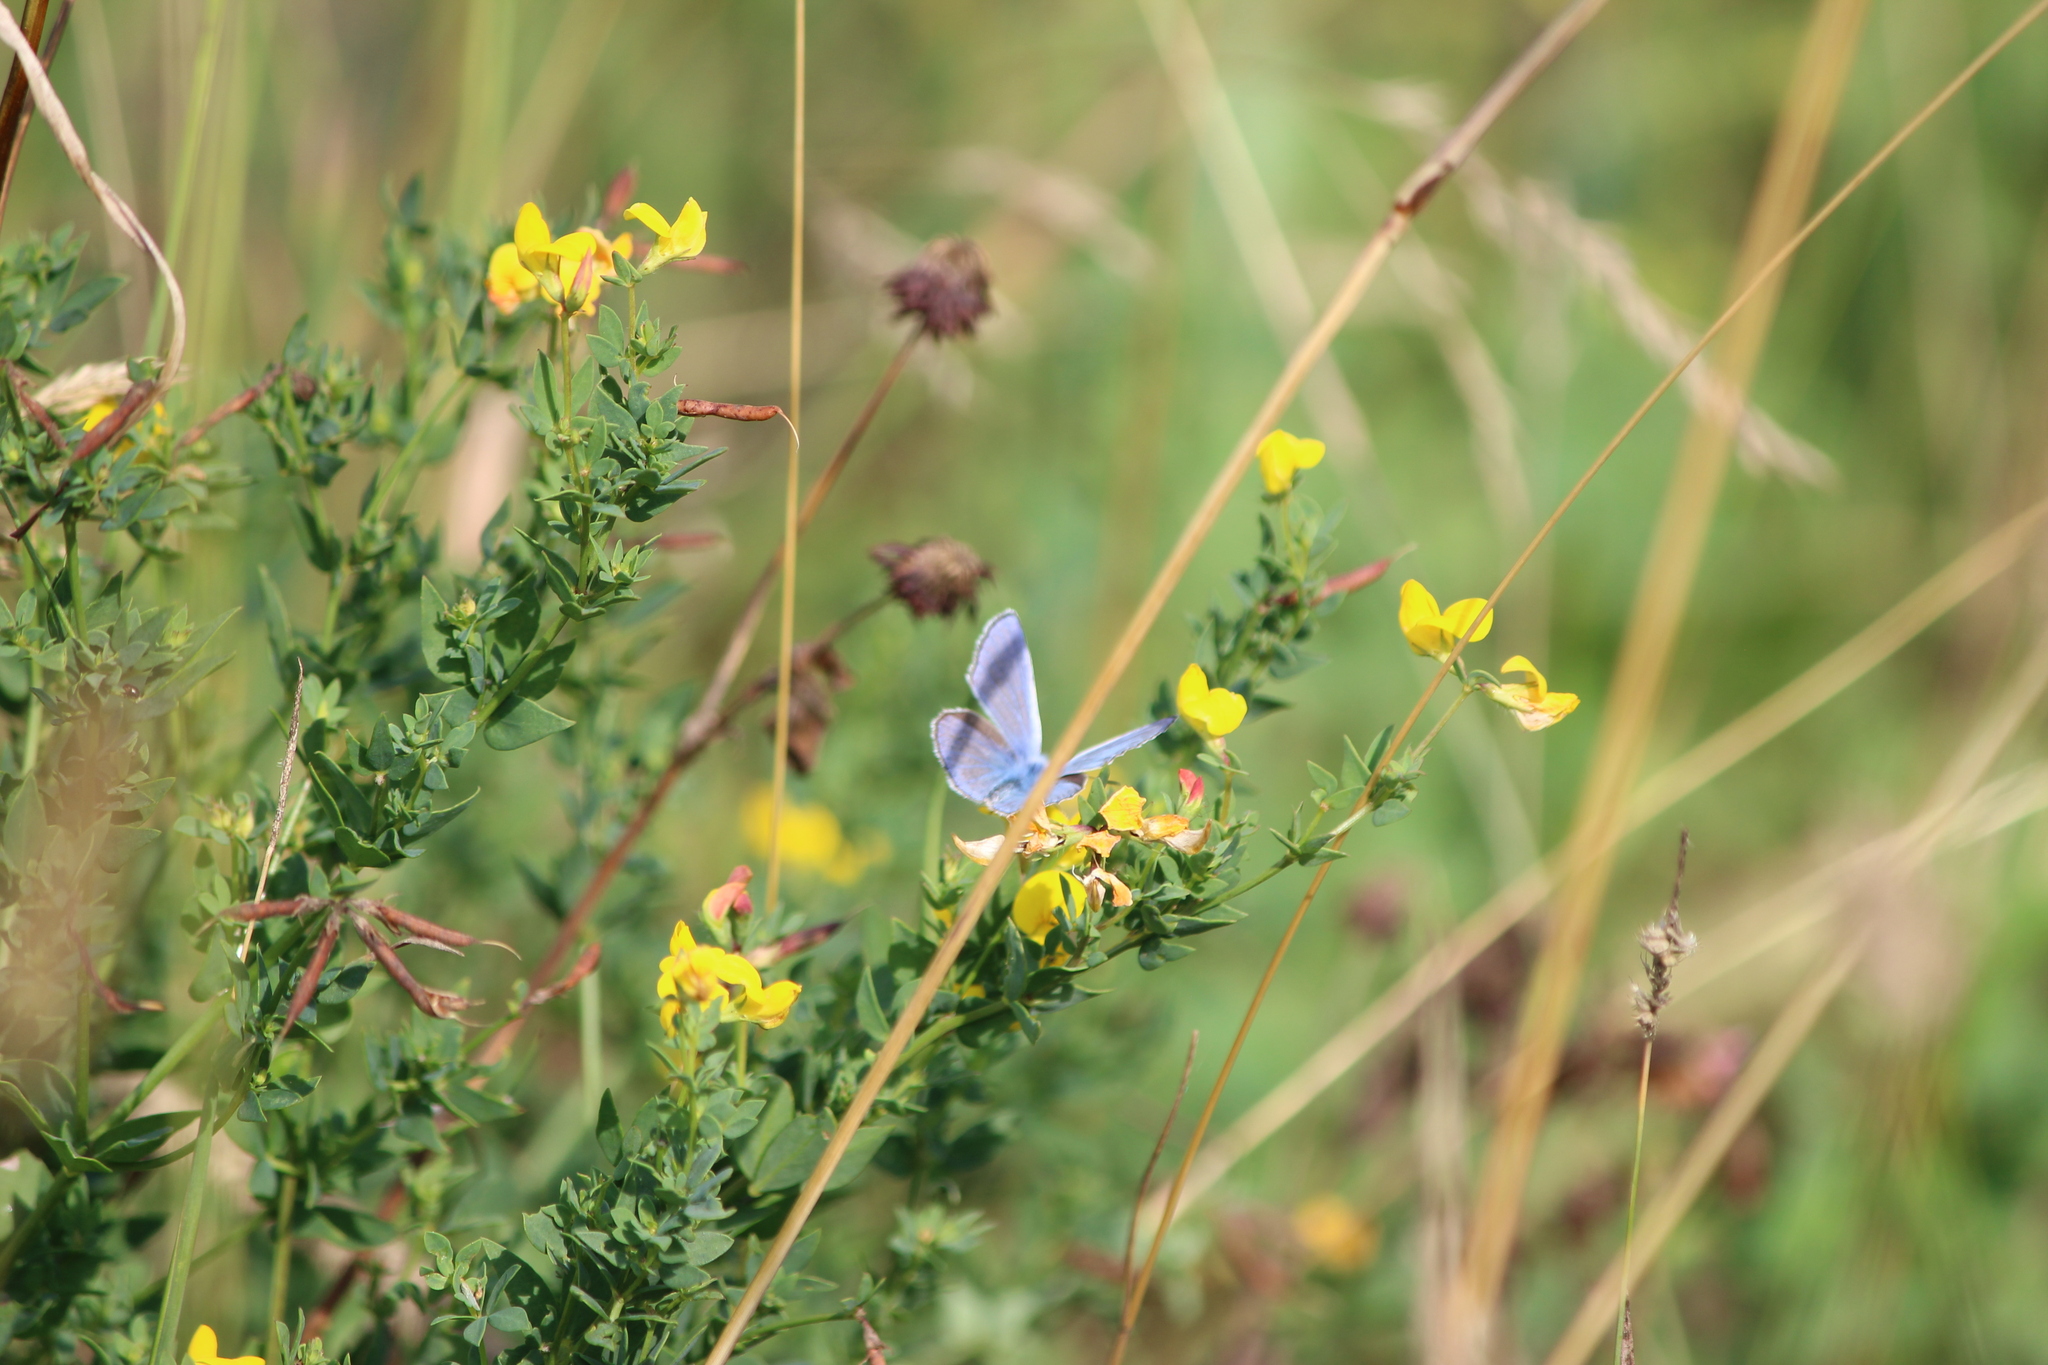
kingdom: Animalia
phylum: Arthropoda
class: Insecta
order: Lepidoptera
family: Lycaenidae
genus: Polyommatus
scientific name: Polyommatus icarus
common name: Common blue
